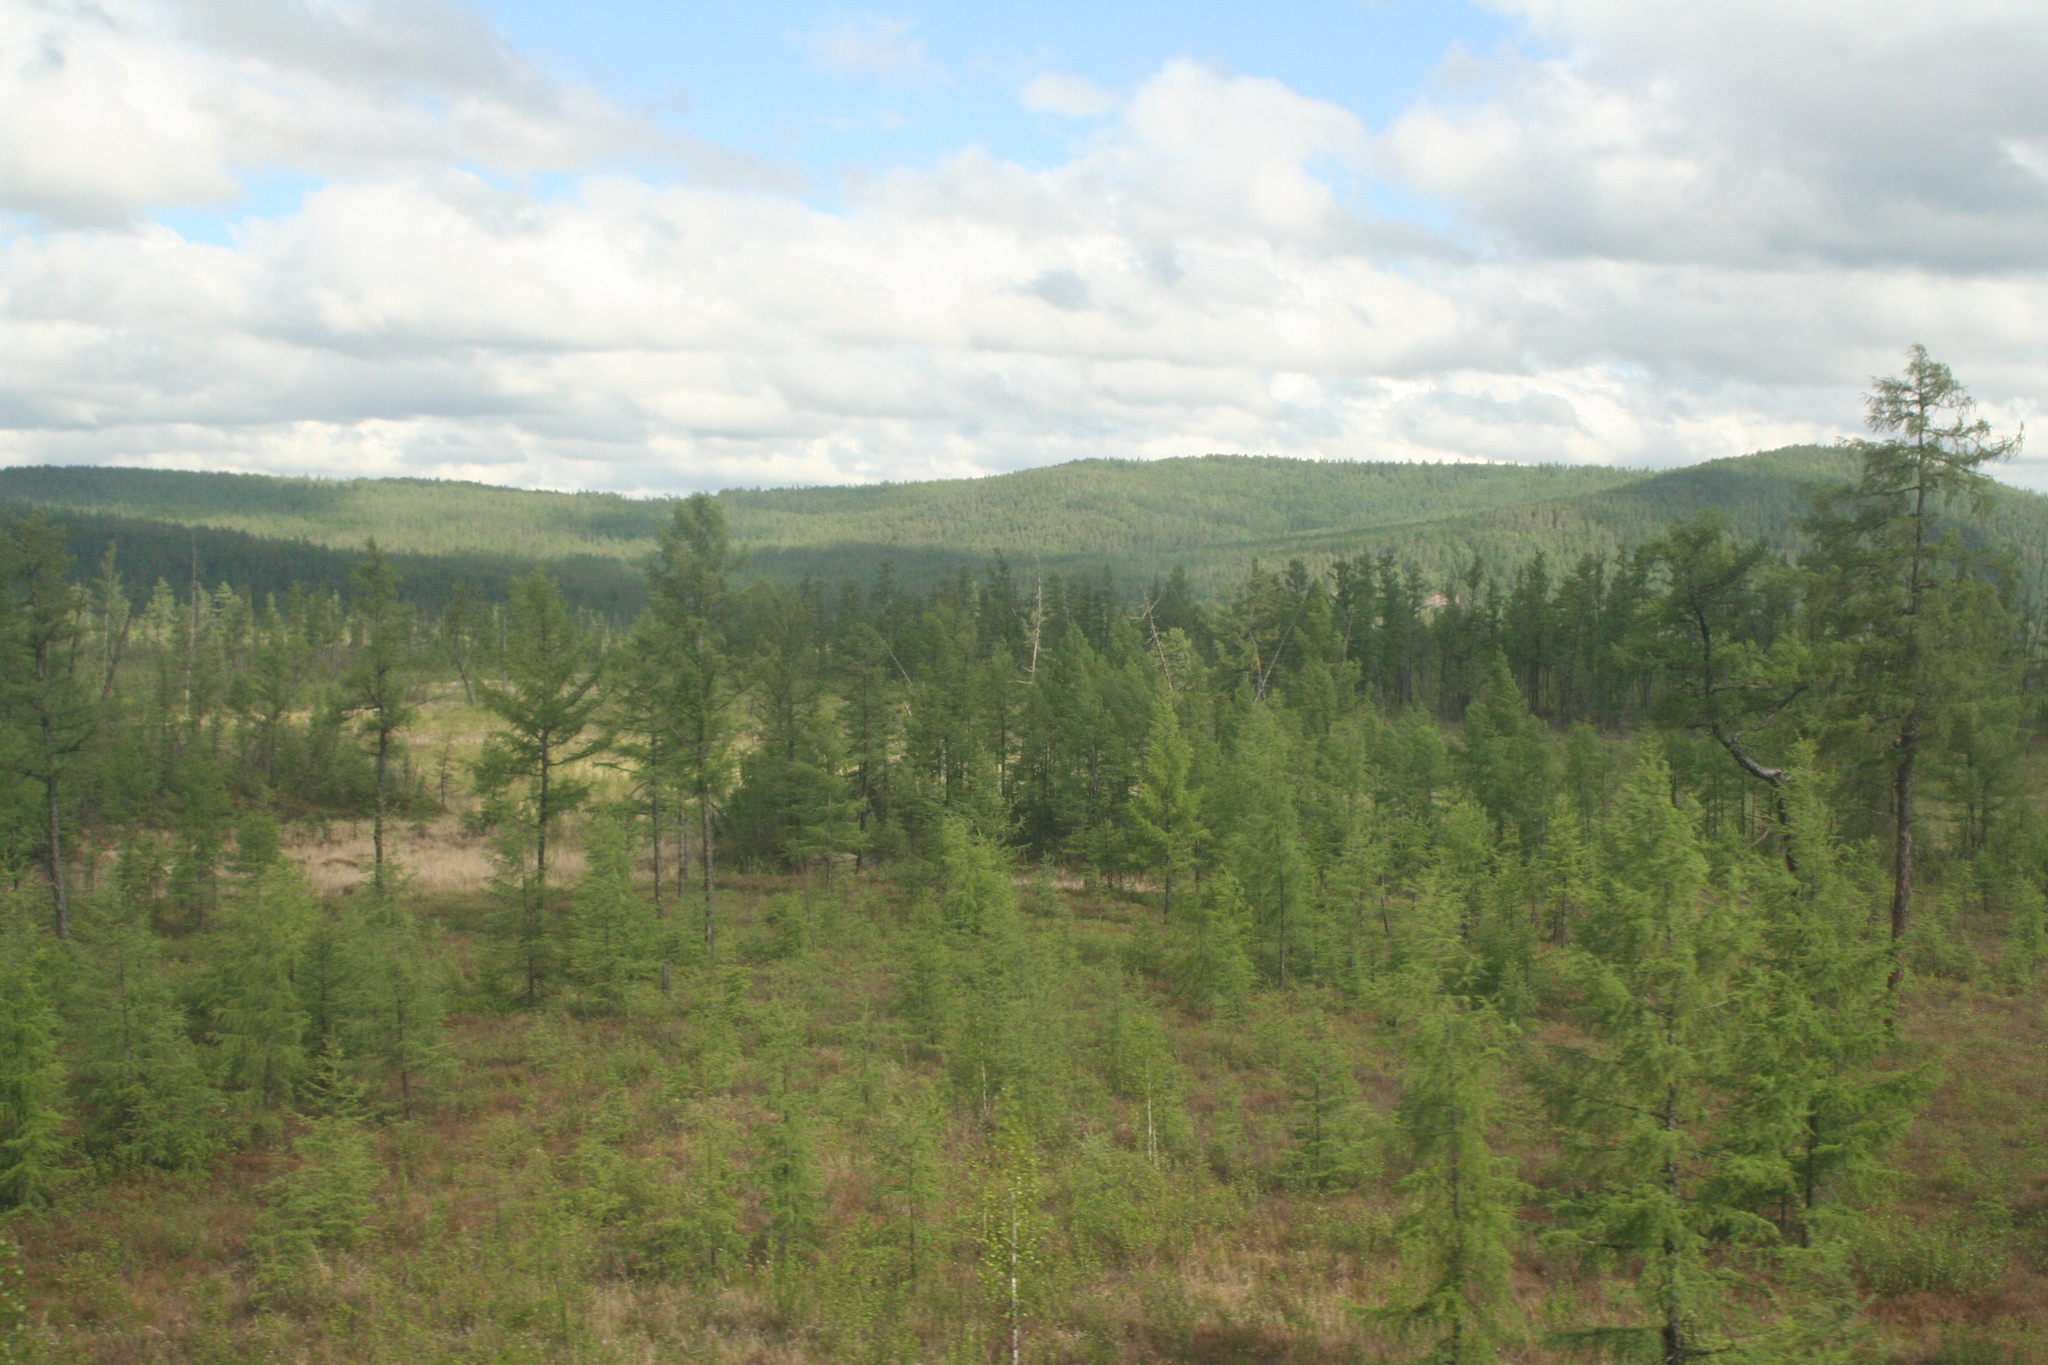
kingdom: Plantae
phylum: Tracheophyta
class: Pinopsida
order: Pinales
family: Pinaceae
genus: Larix
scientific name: Larix gmelinii
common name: Dahurian larch
